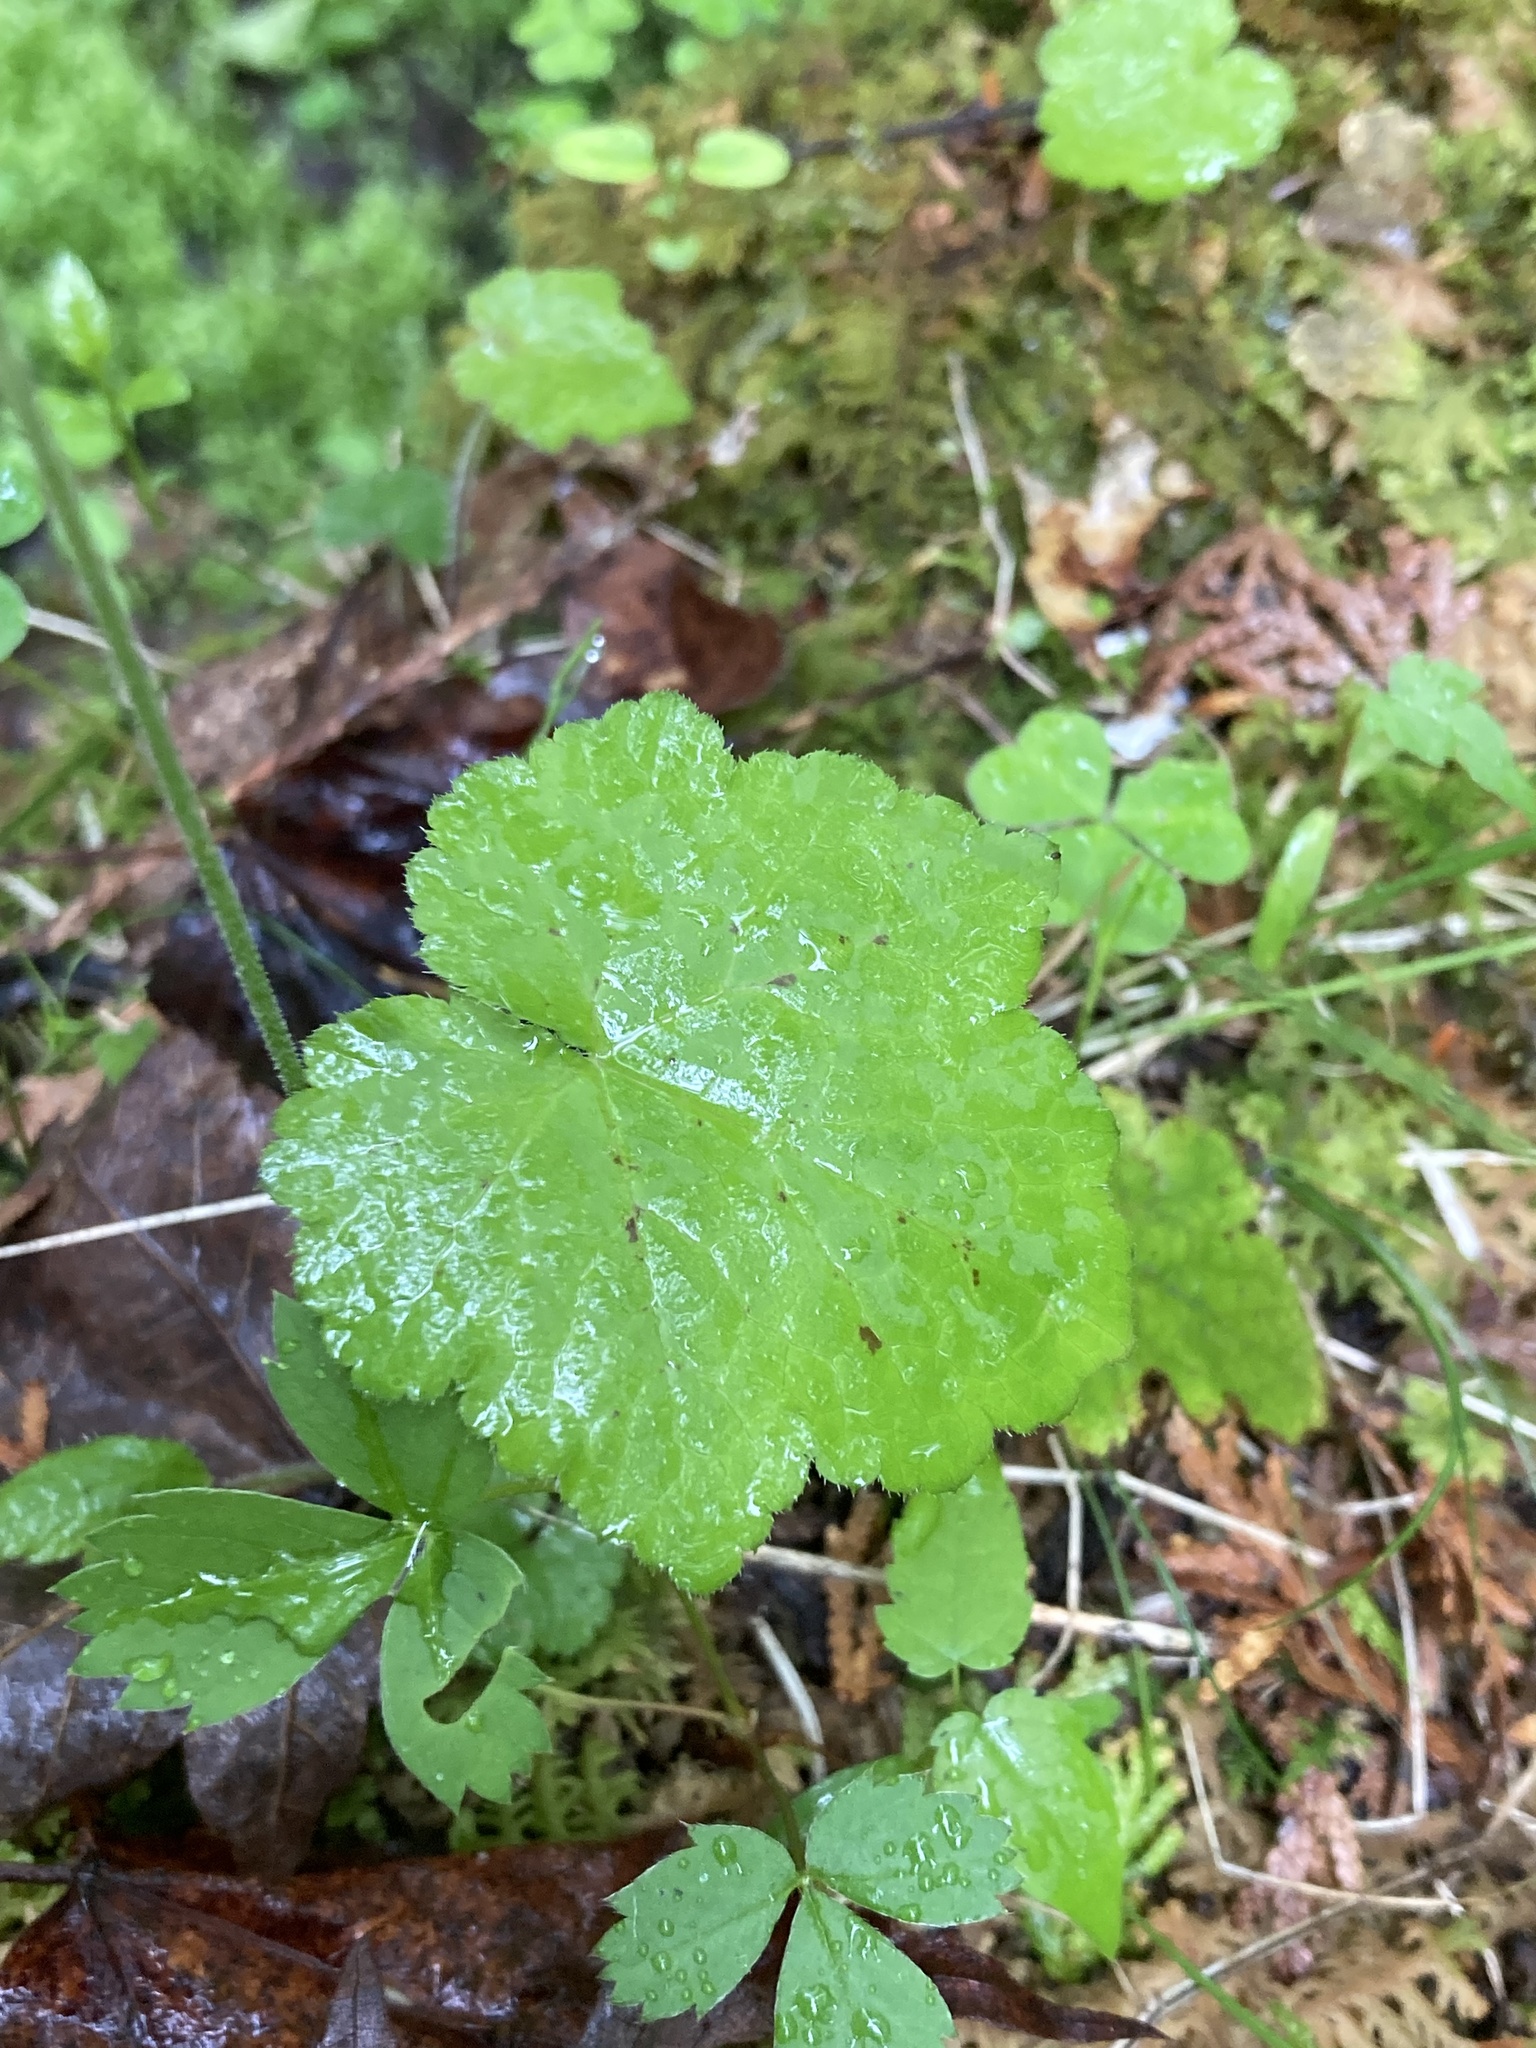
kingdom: Plantae
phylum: Tracheophyta
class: Magnoliopsida
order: Saxifragales
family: Saxifragaceae
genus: Tiarella
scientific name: Tiarella stolonifera
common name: Stoloniferous foamflower
